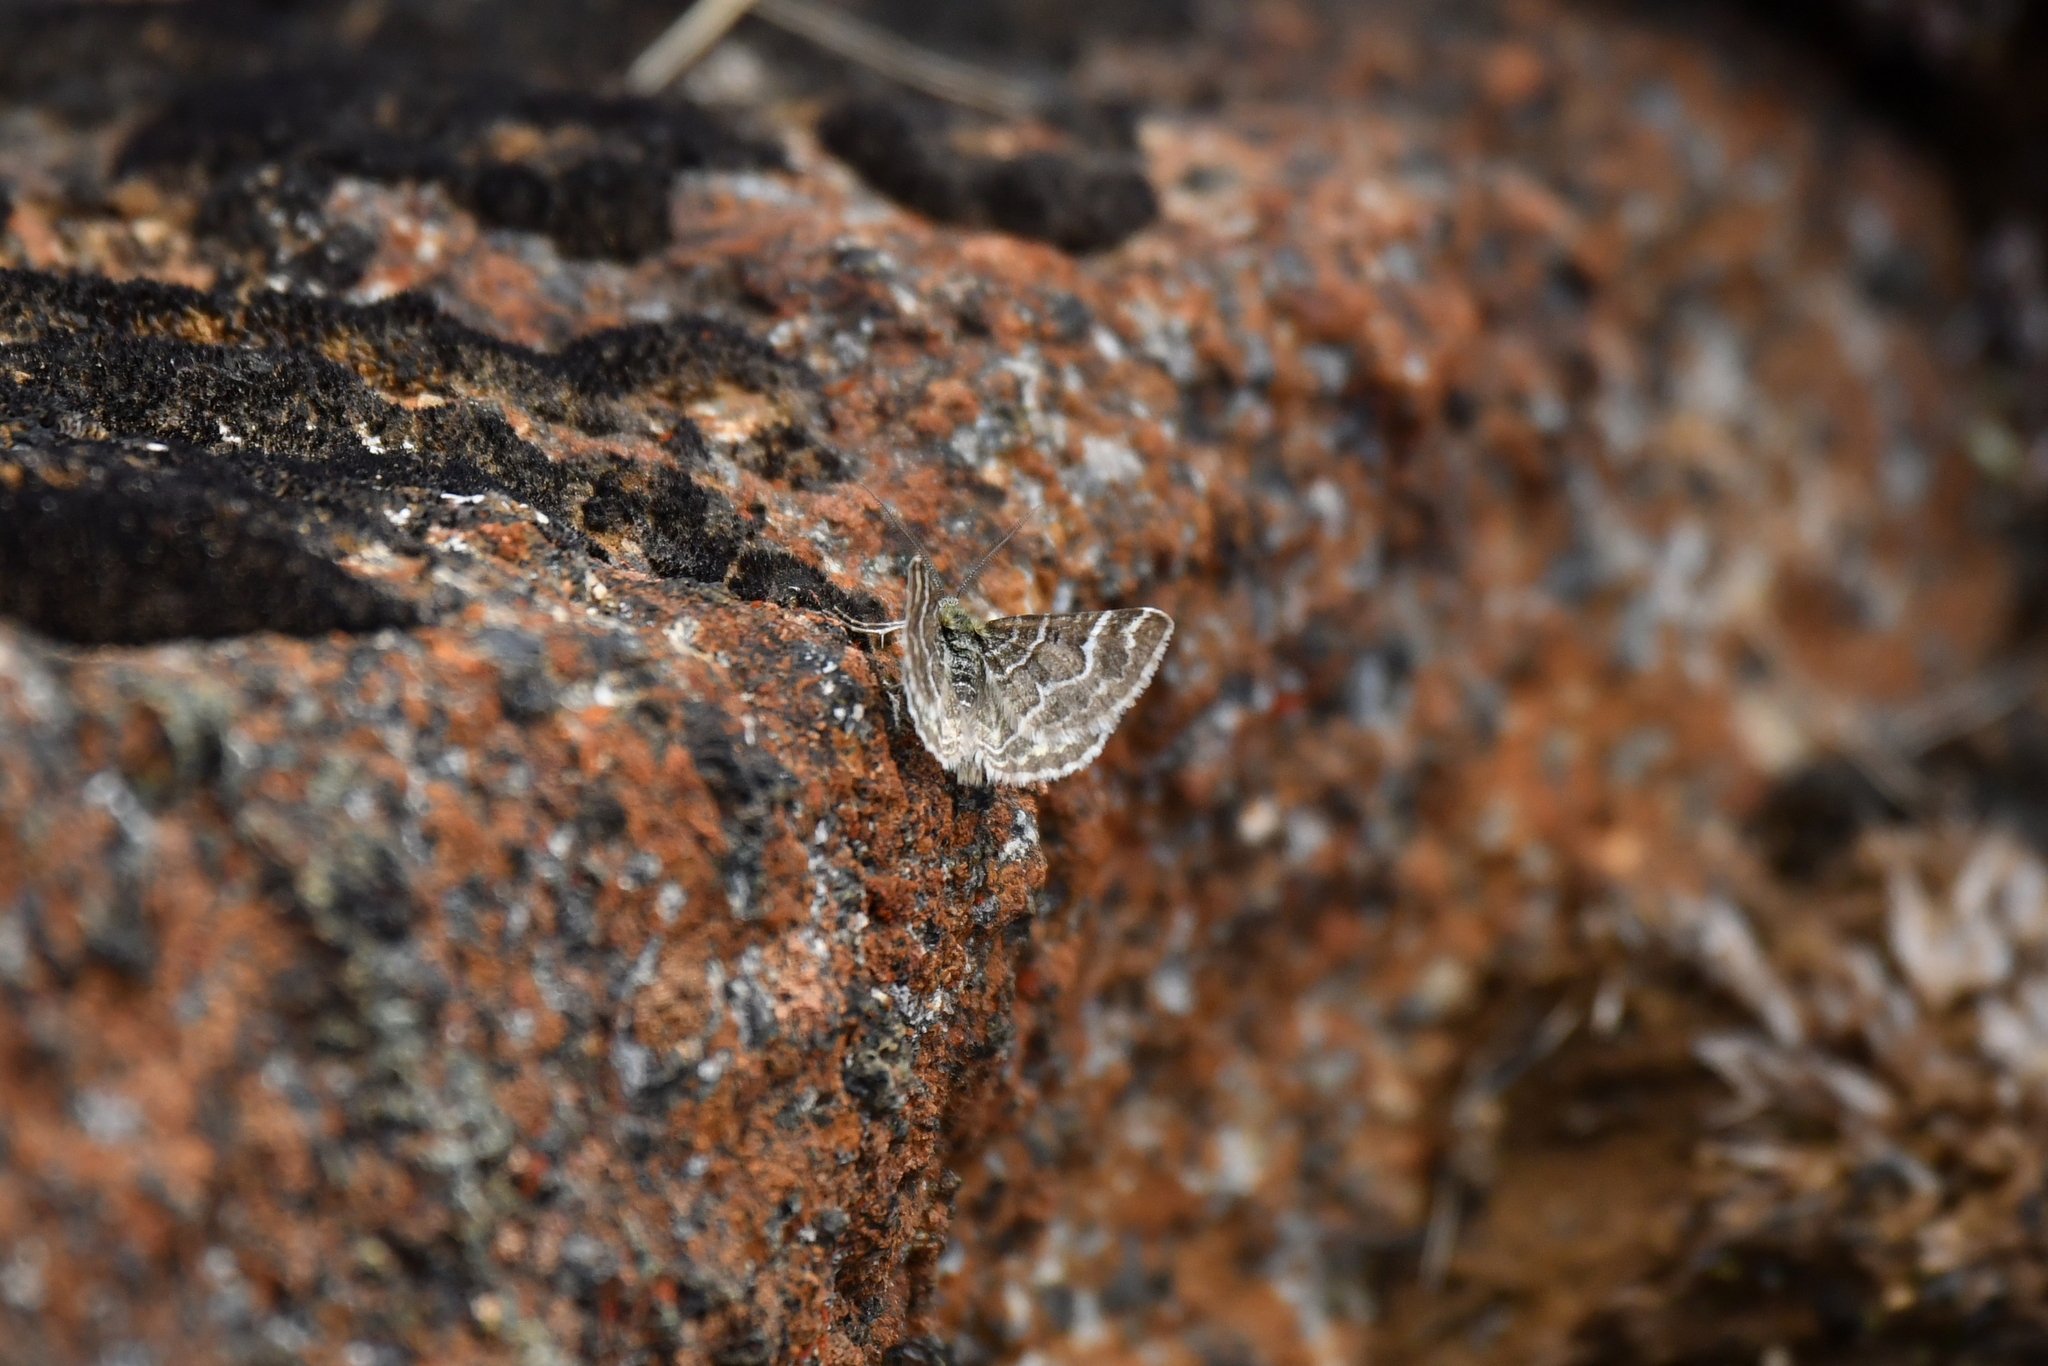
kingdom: Animalia
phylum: Arthropoda
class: Insecta
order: Lepidoptera
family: Geometridae
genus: Notoreas
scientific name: Notoreas paradelpha
